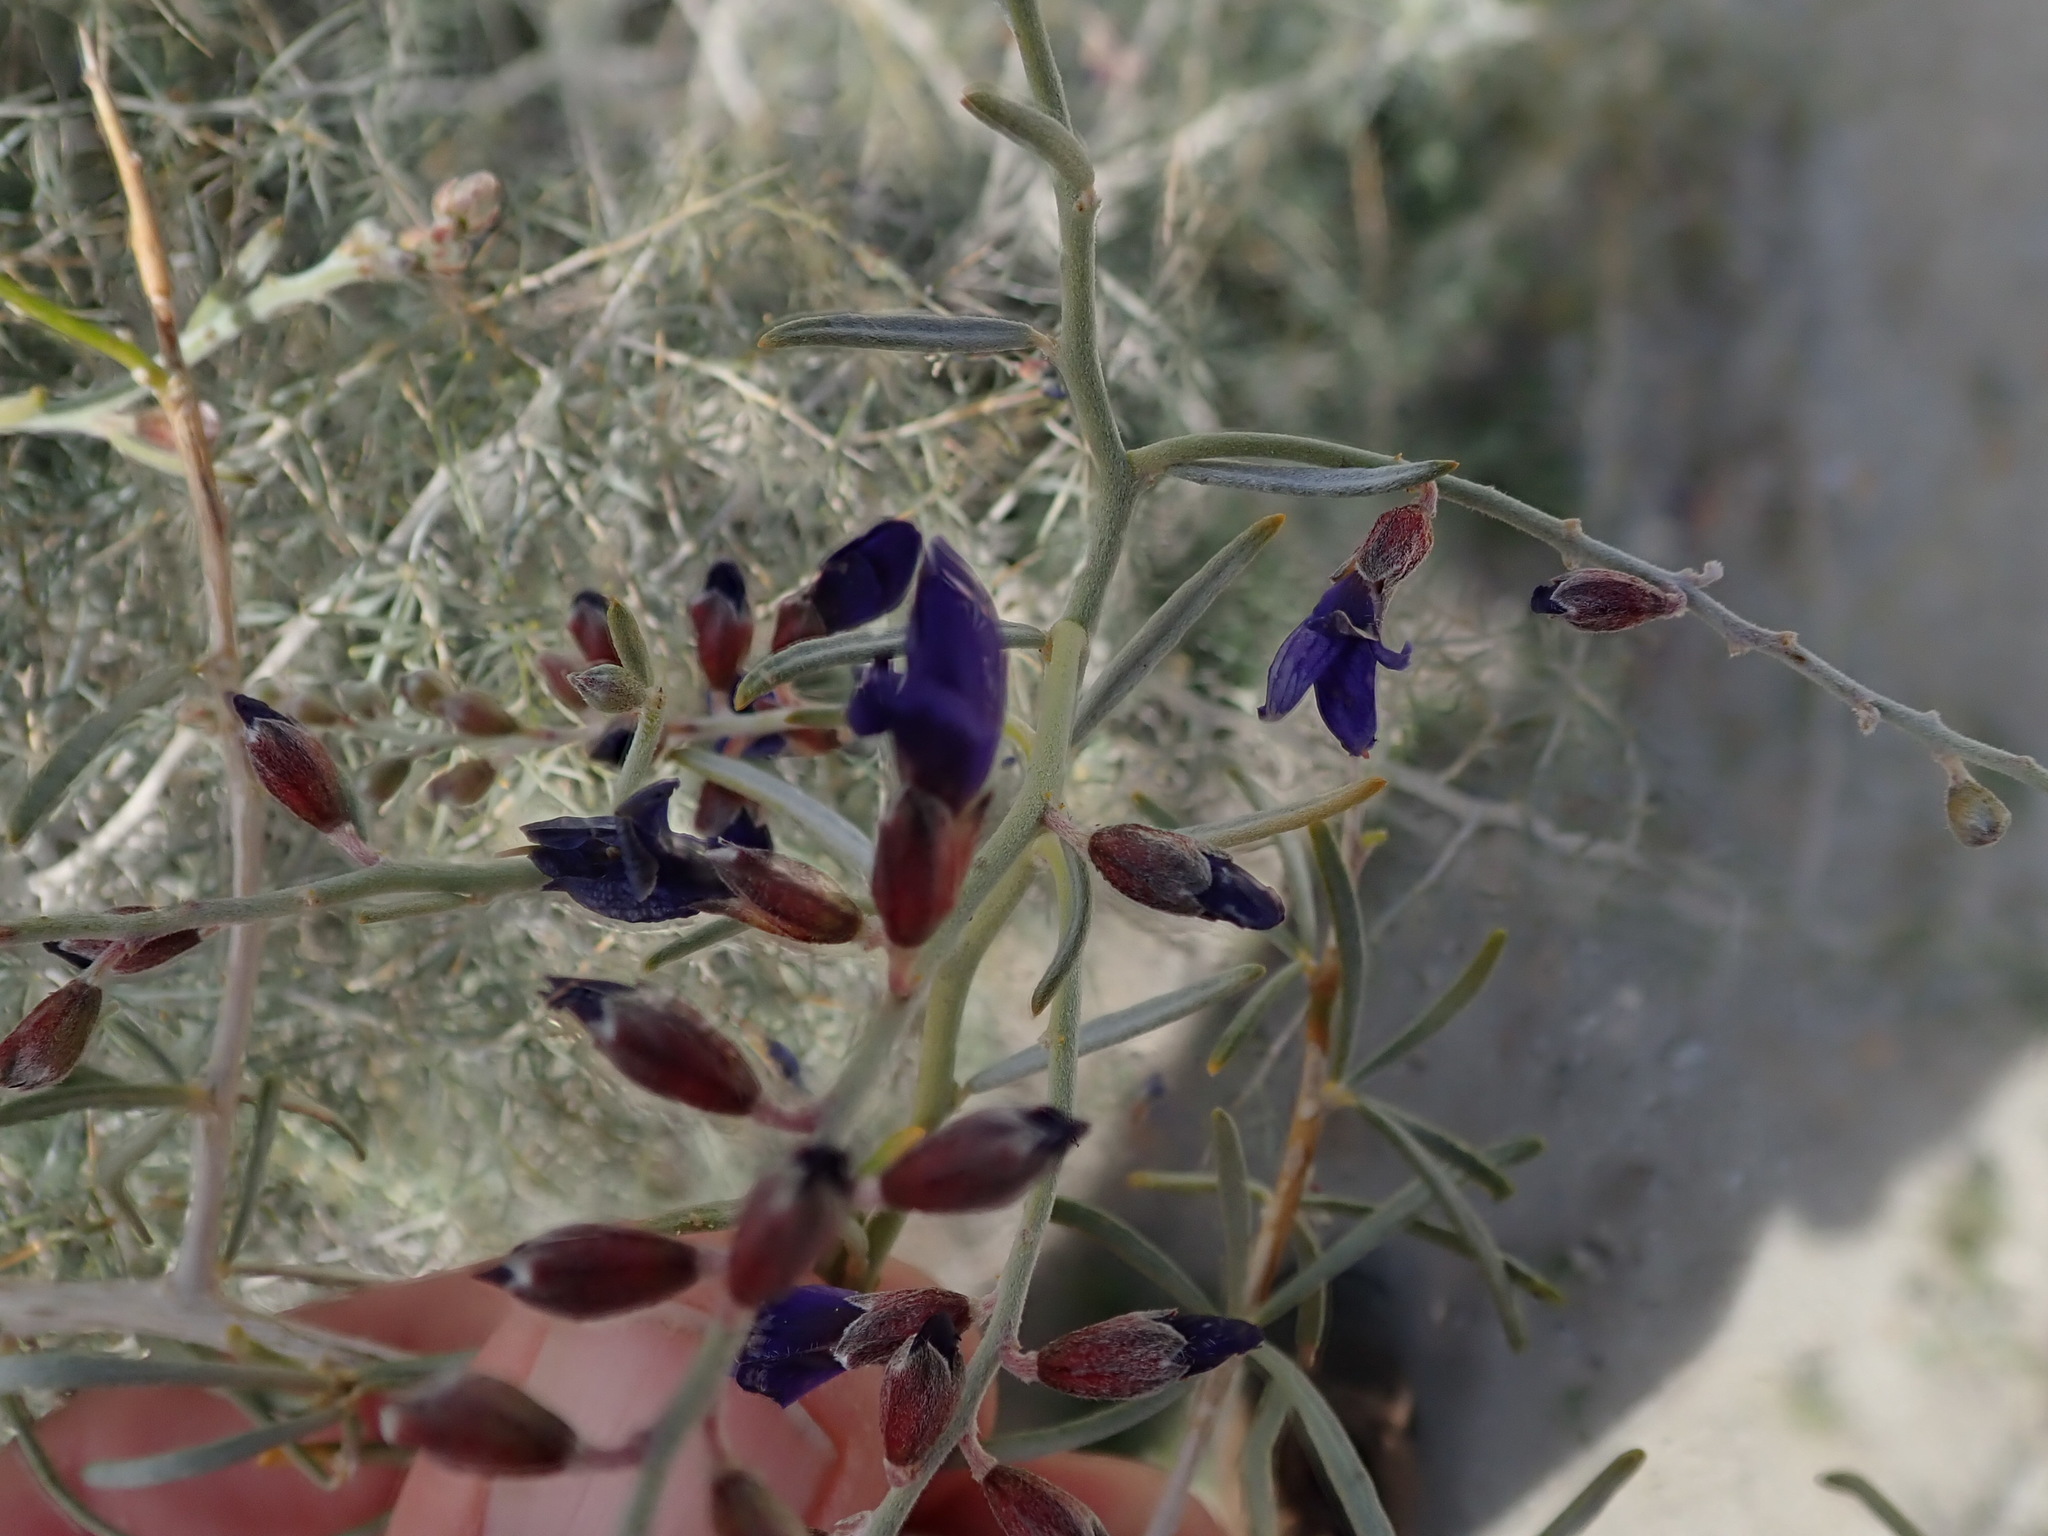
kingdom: Plantae
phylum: Tracheophyta
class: Magnoliopsida
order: Fabales
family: Fabaceae
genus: Psorothamnus
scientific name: Psorothamnus schottii
